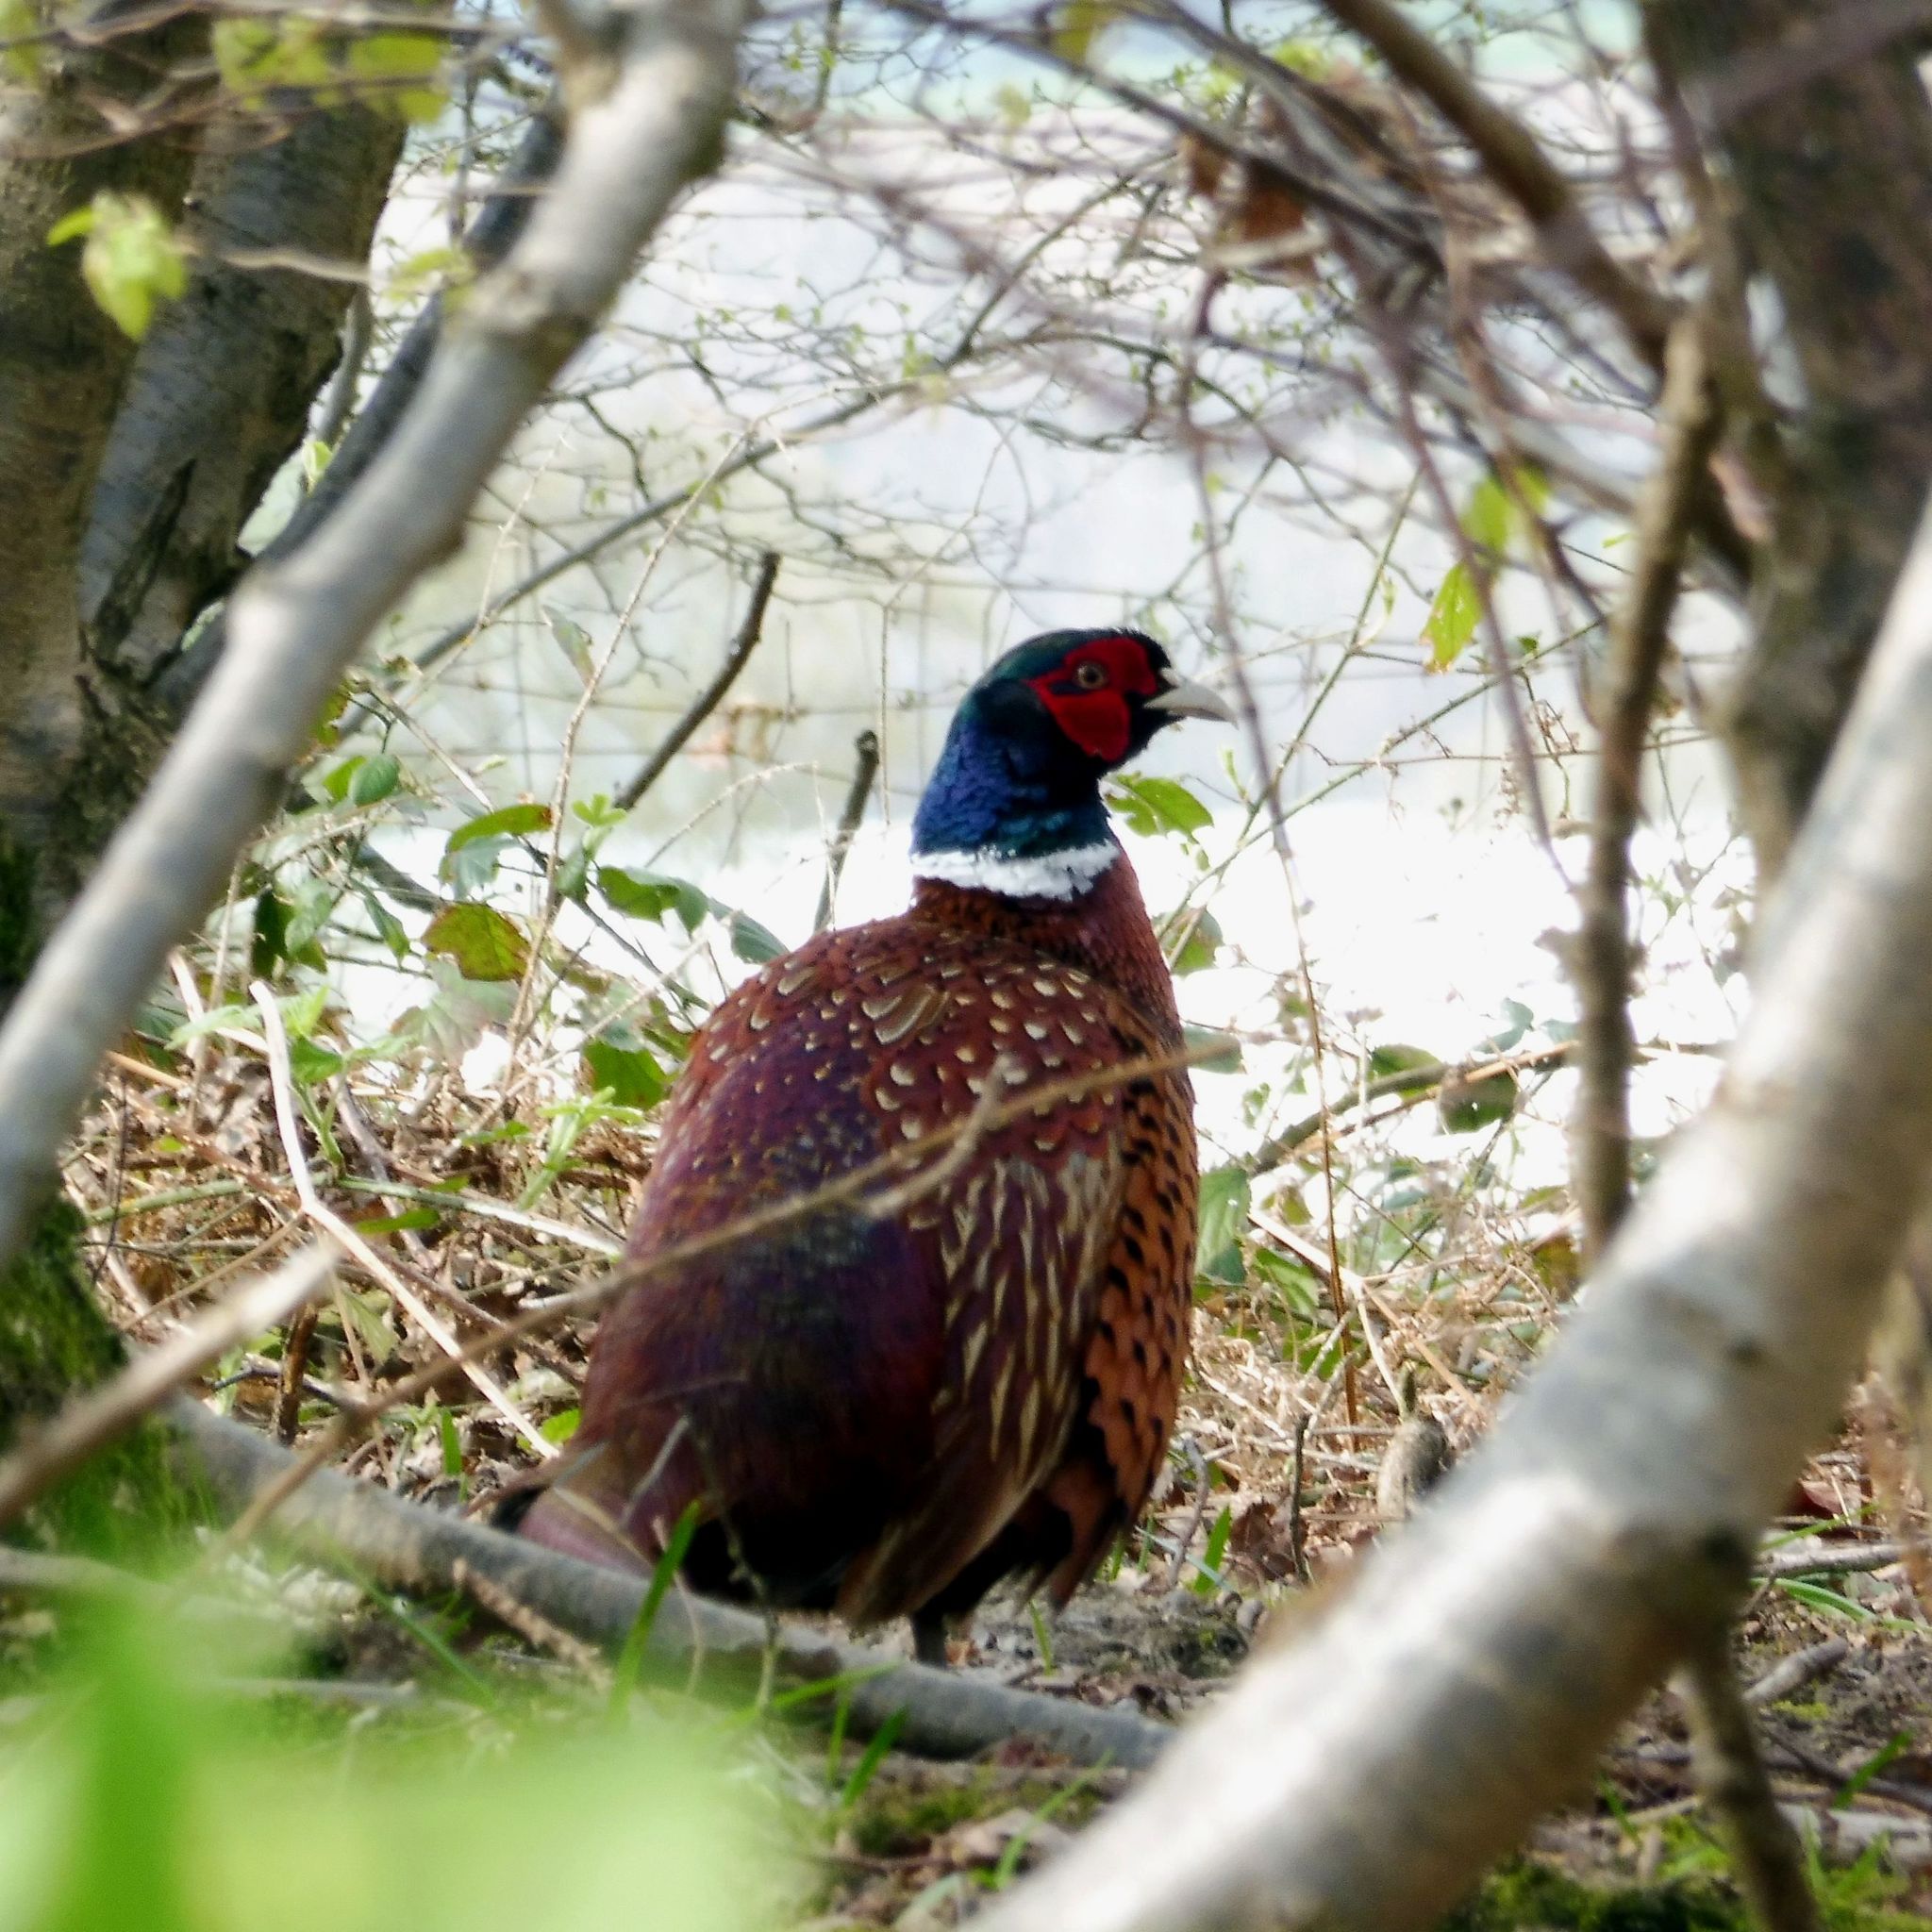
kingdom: Animalia
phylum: Chordata
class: Aves
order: Galliformes
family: Phasianidae
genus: Phasianus
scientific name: Phasianus colchicus
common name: Common pheasant
